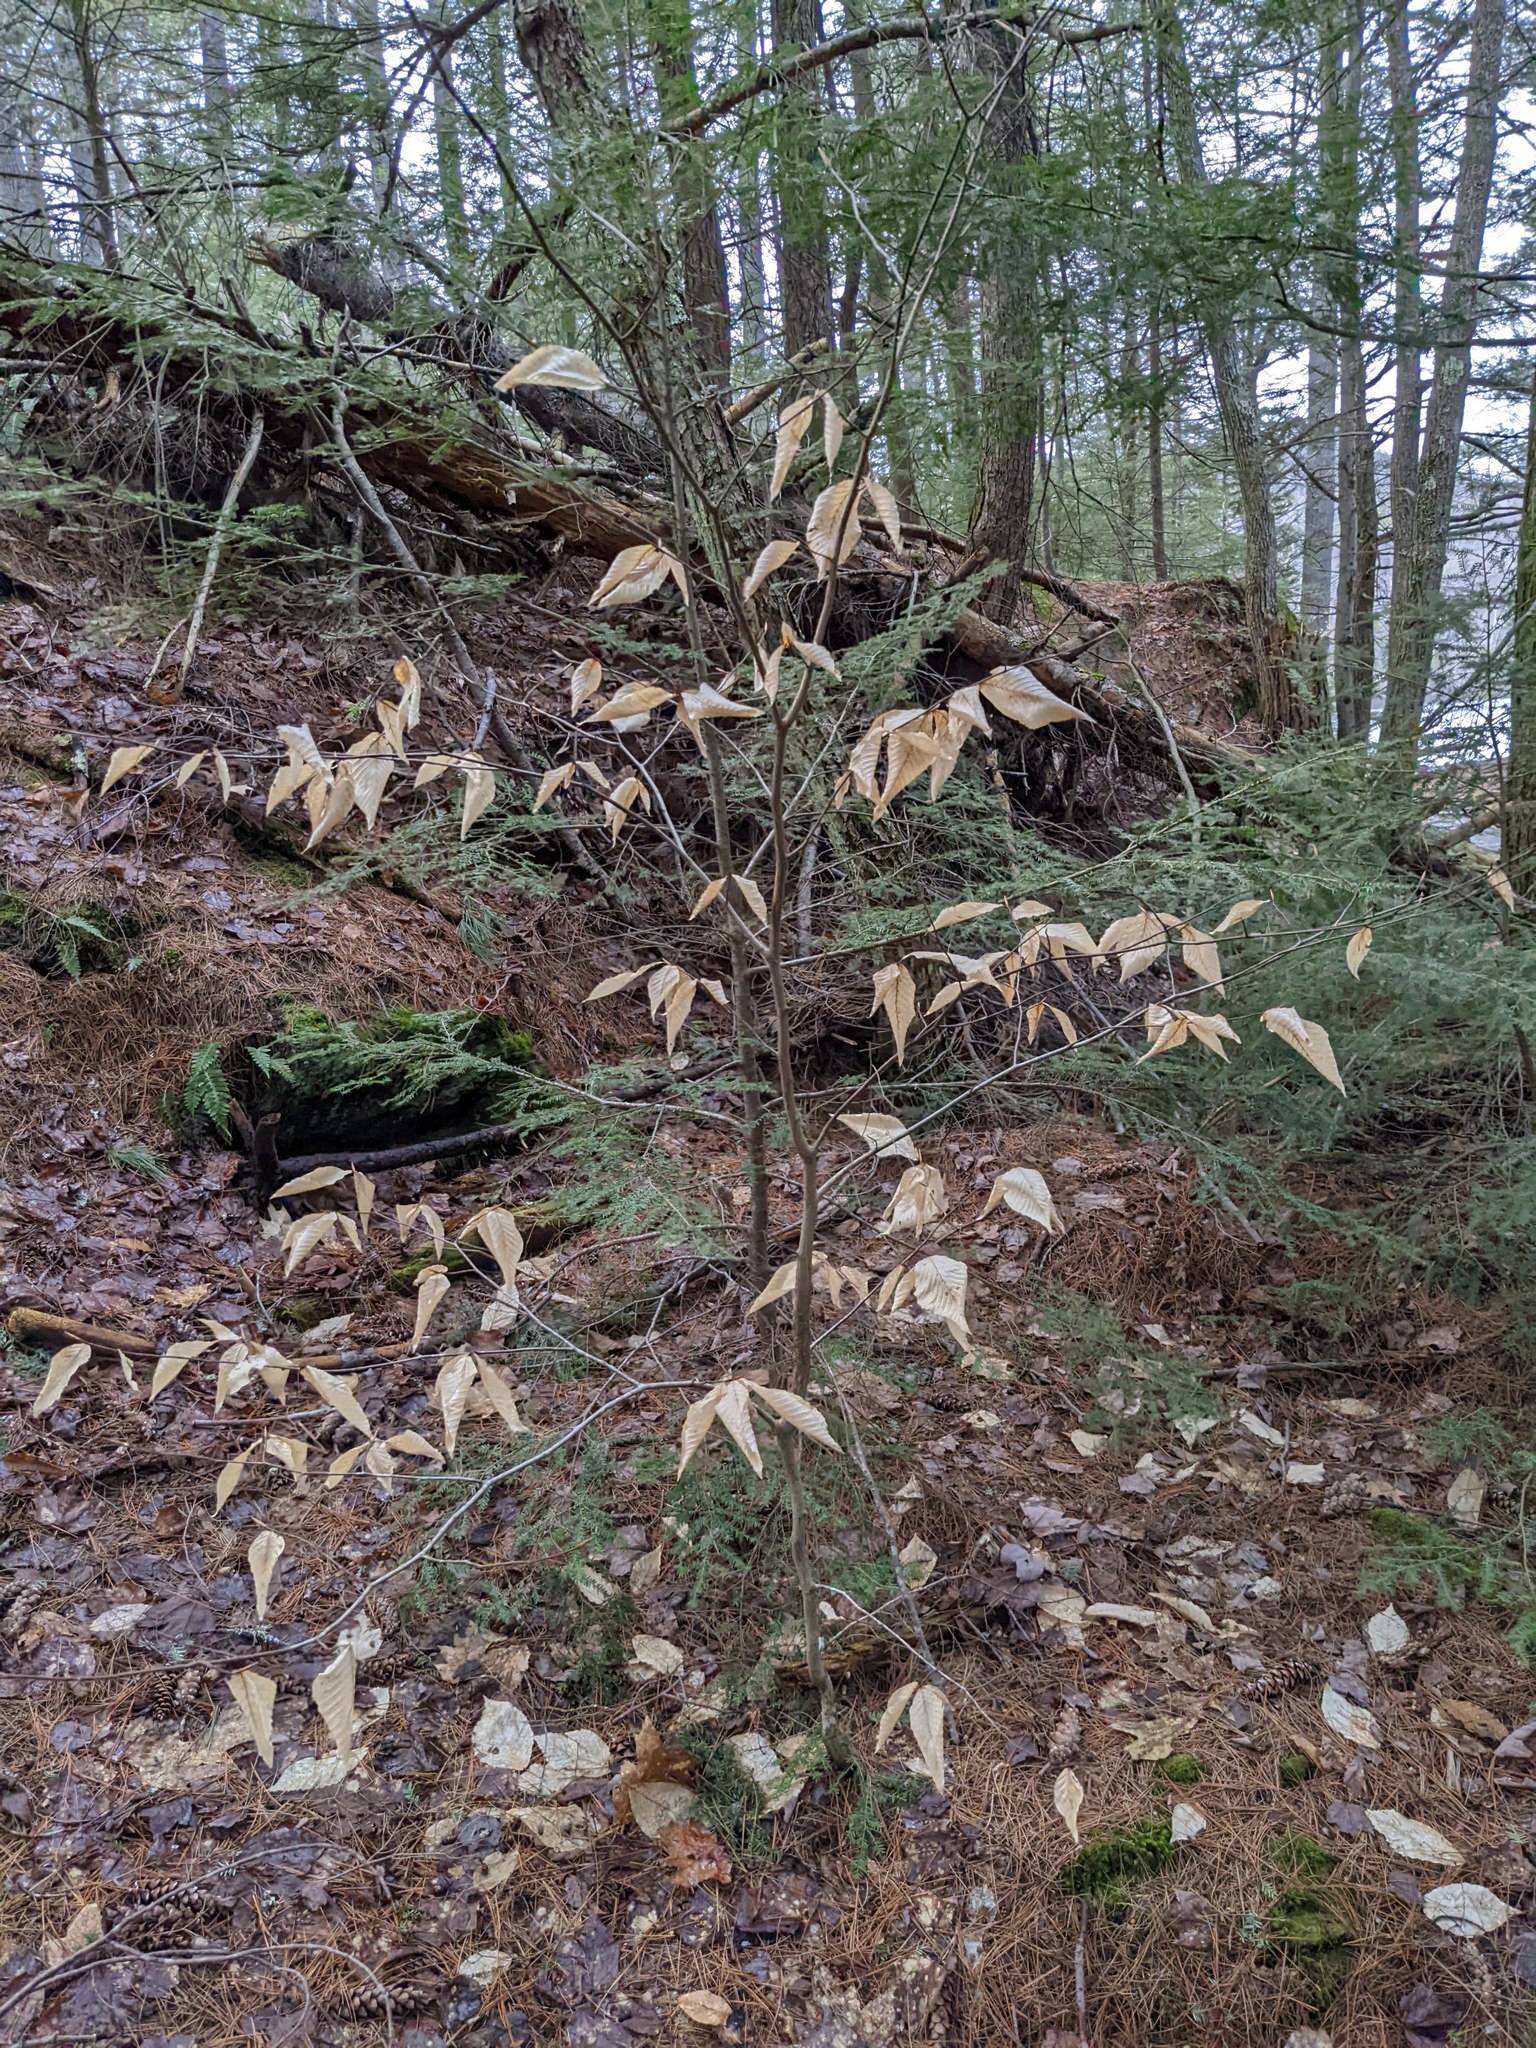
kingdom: Plantae
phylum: Tracheophyta
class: Magnoliopsida
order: Fagales
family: Fagaceae
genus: Fagus
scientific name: Fagus grandifolia
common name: American beech
